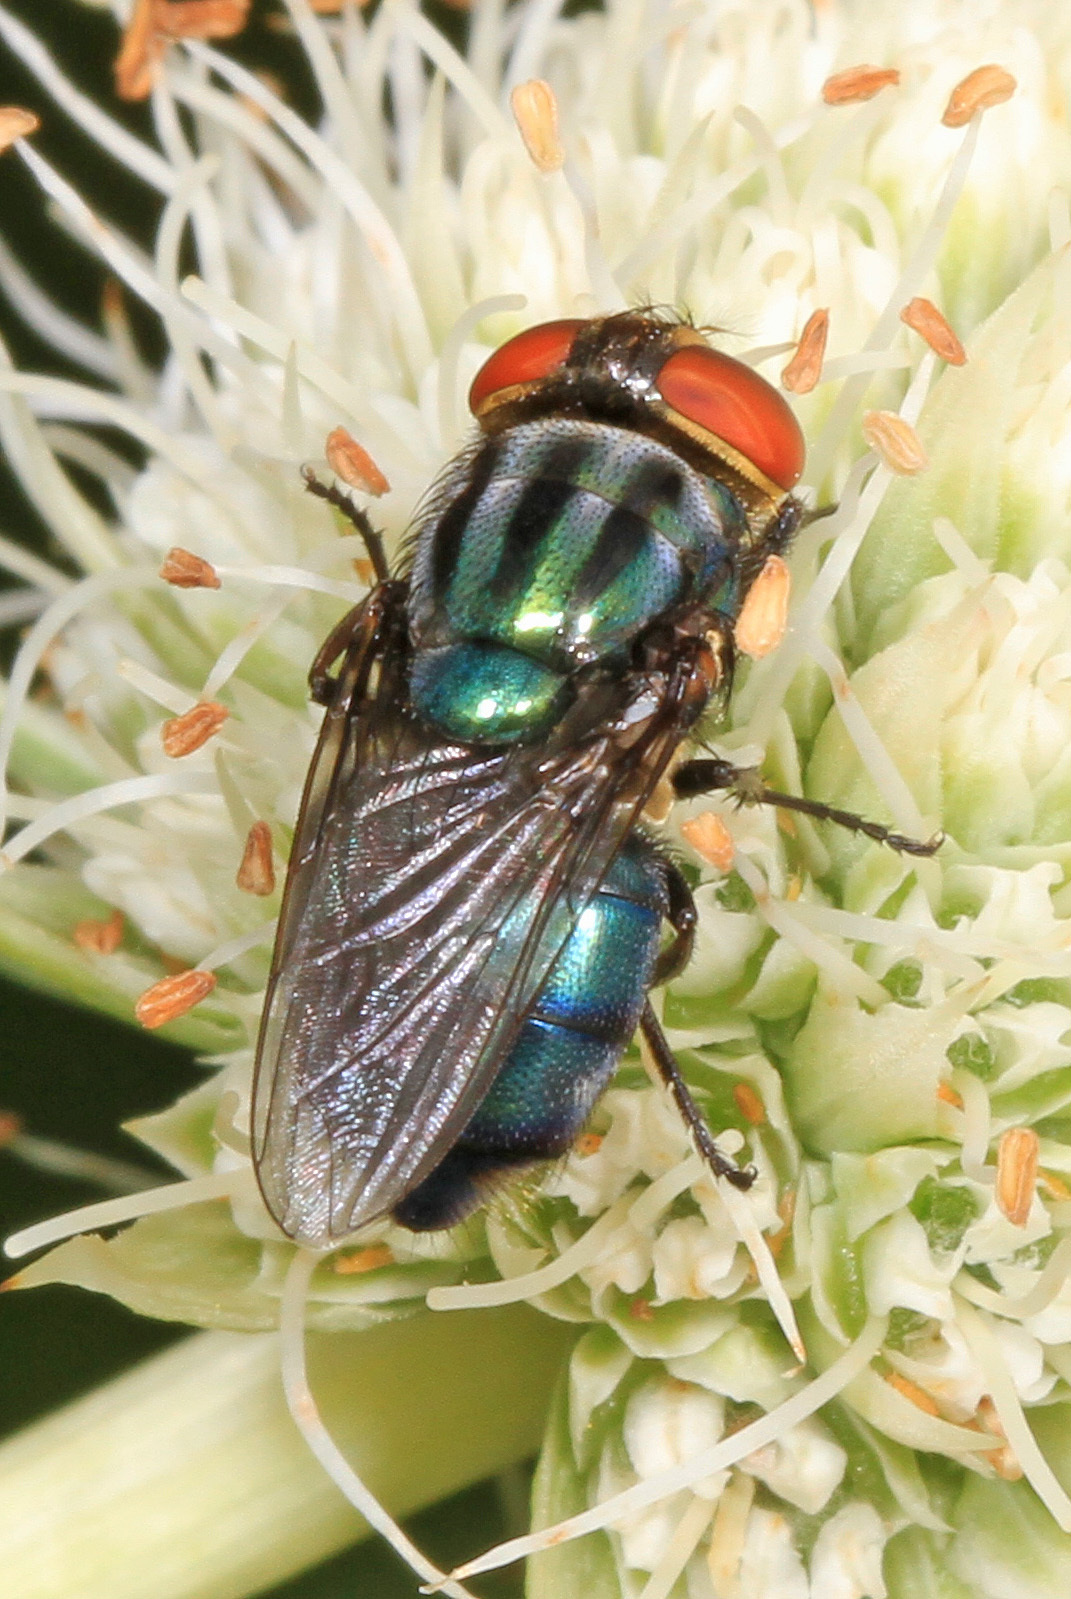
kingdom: Animalia
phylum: Arthropoda
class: Insecta
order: Diptera
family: Calliphoridae
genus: Cochliomyia
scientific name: Cochliomyia macellaria
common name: Secondary screwworm
